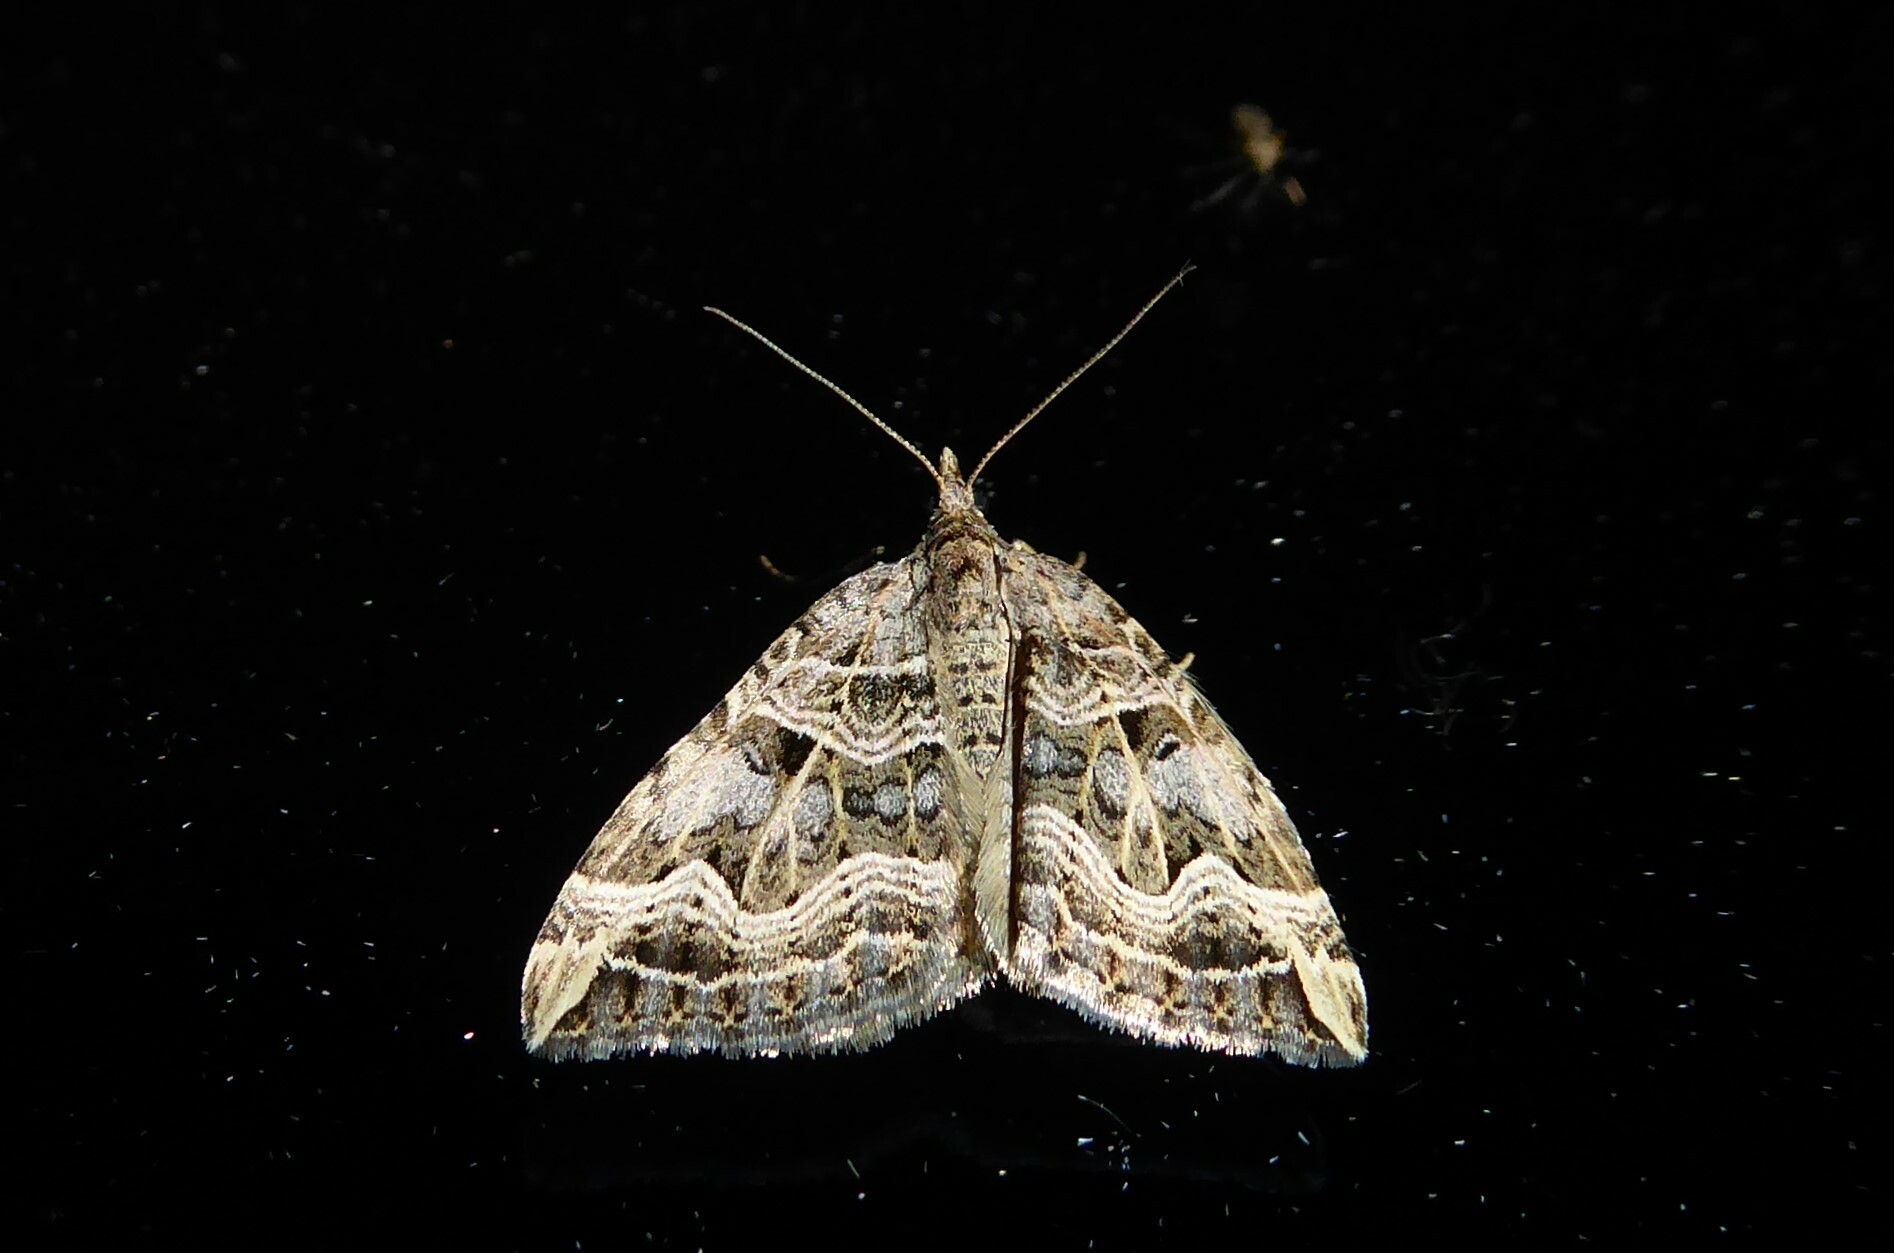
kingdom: Animalia
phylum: Arthropoda
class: Insecta
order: Lepidoptera
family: Geometridae
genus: Xanthorhoe
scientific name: Xanthorhoe semifissata
